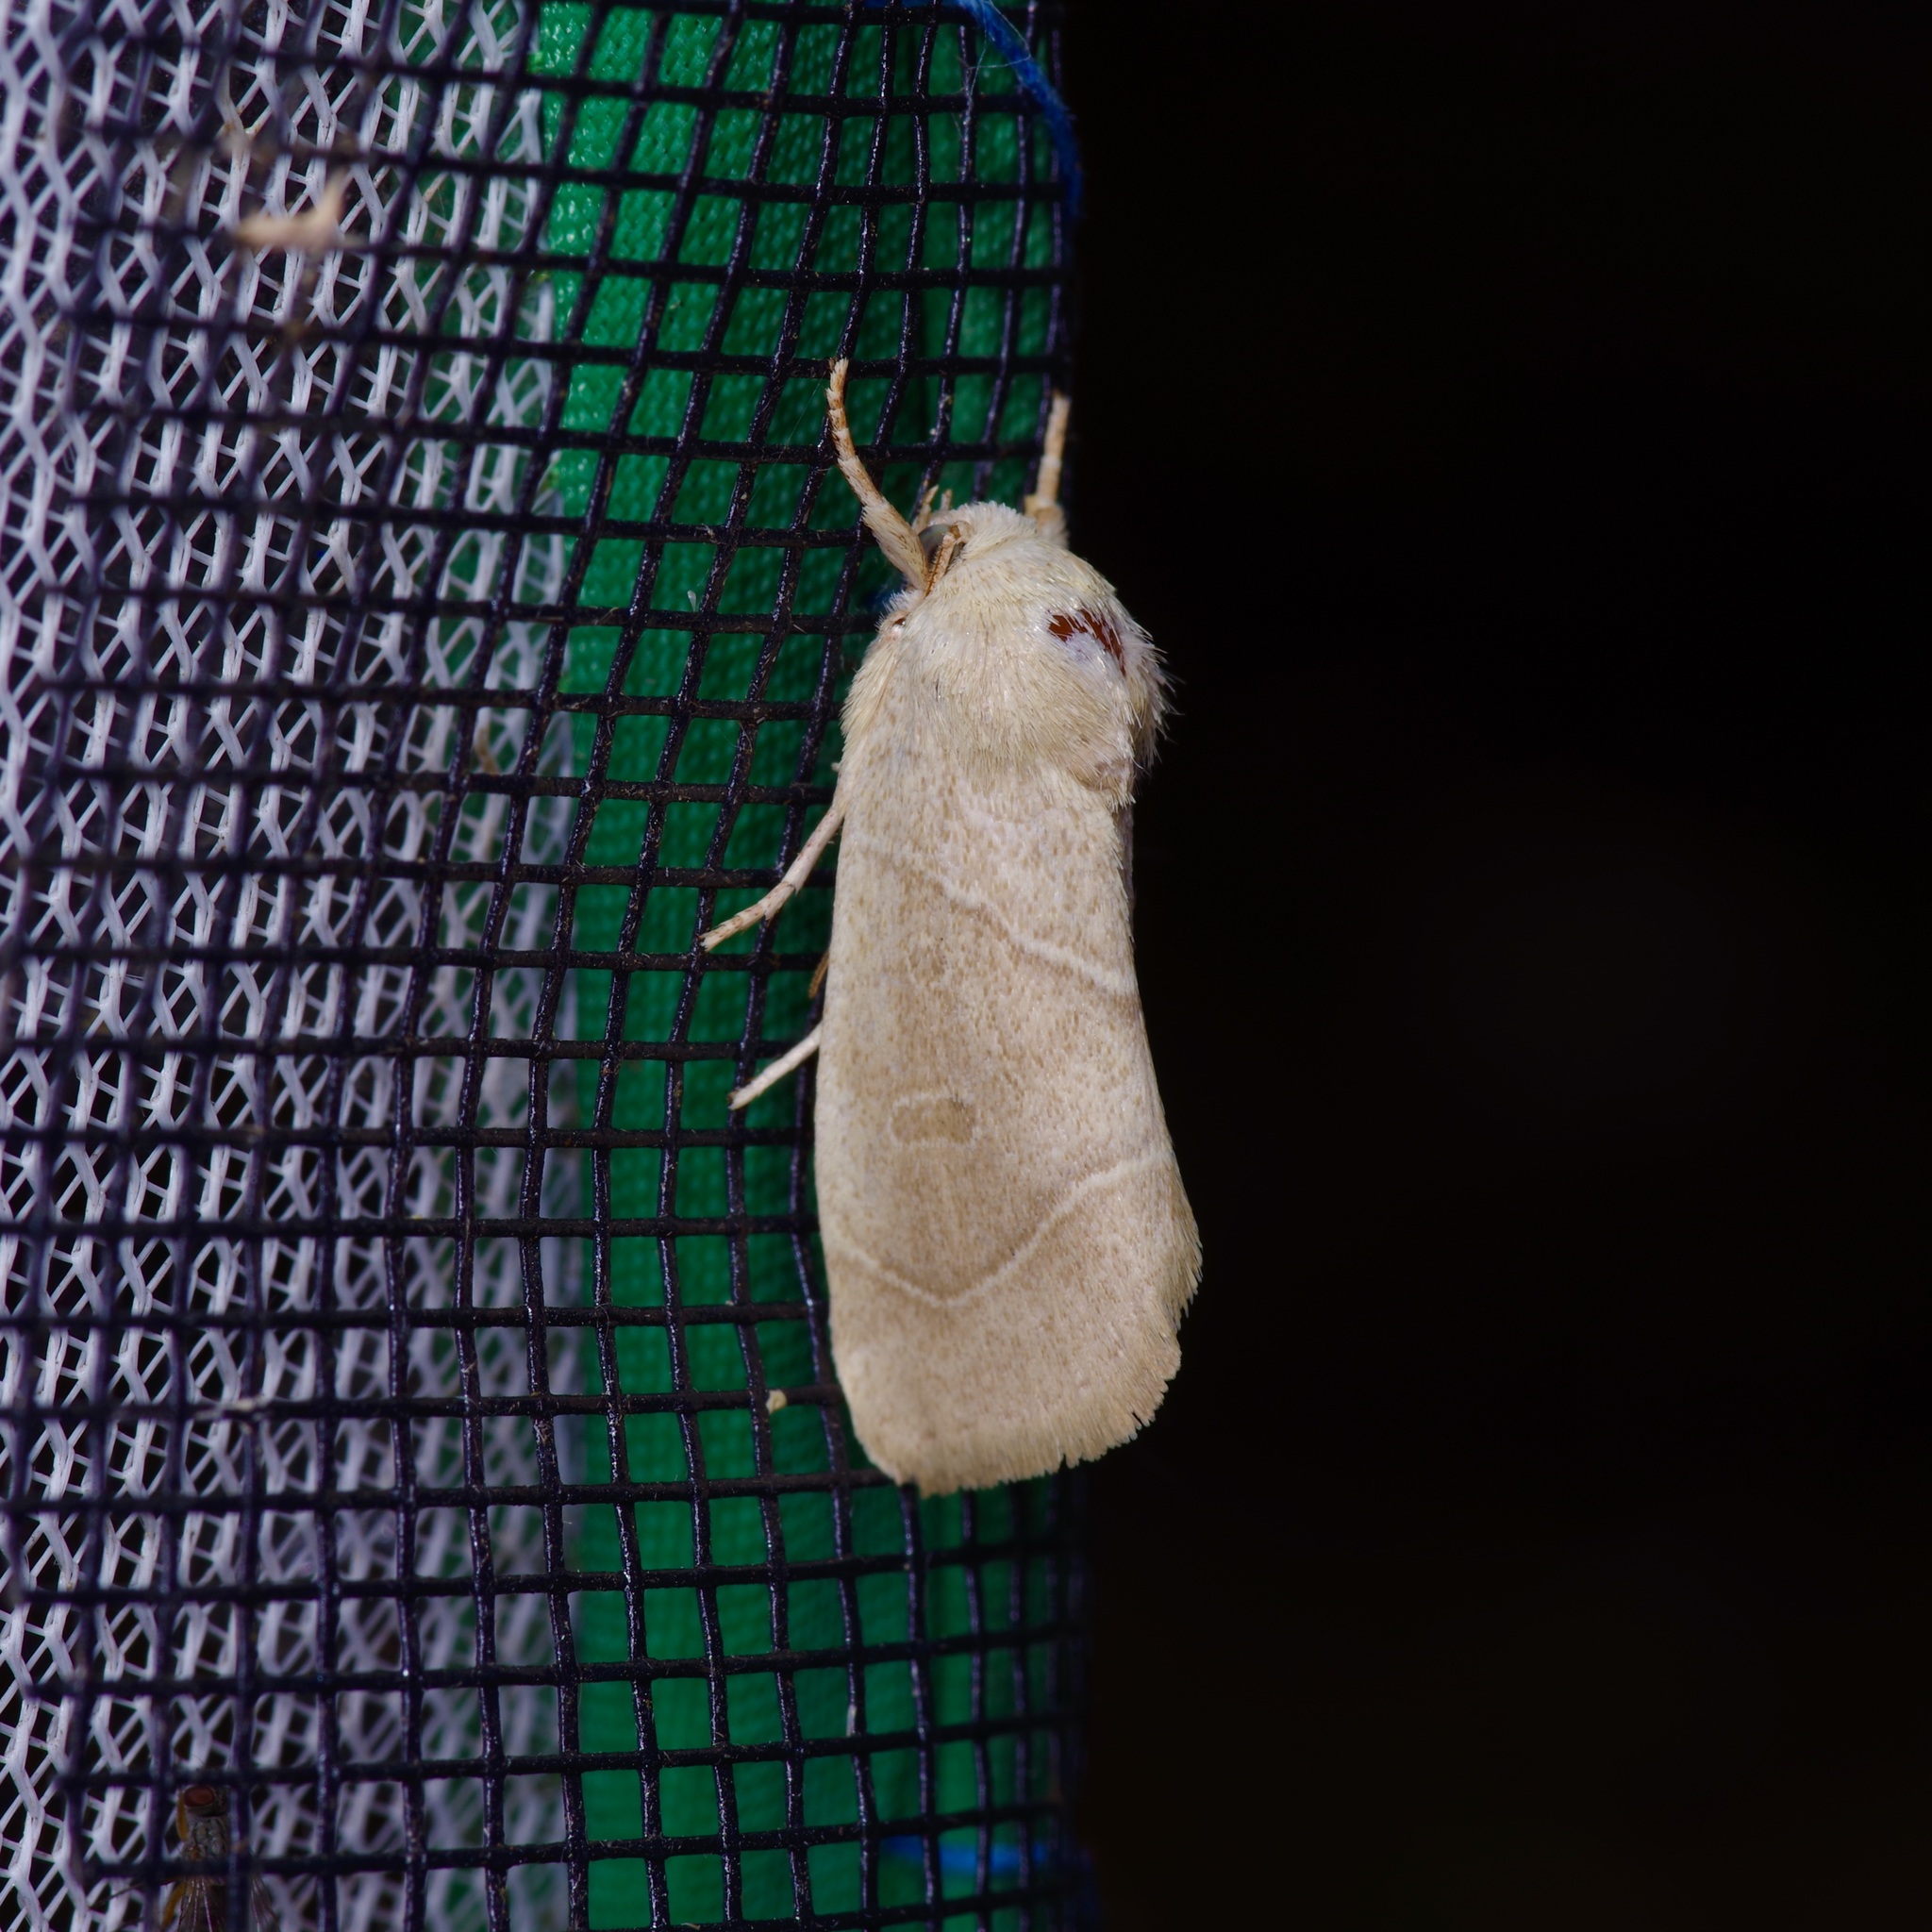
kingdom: Animalia
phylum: Arthropoda
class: Insecta
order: Lepidoptera
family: Noctuidae
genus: Cosmia
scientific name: Cosmia calami
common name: American dun-bar moth
